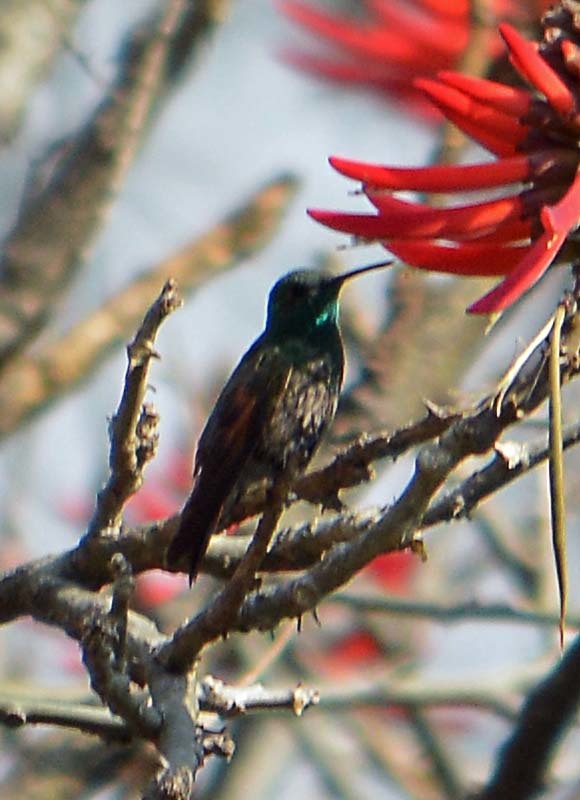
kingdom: Animalia
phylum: Chordata
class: Aves
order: Apodiformes
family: Trochilidae
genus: Saucerottia
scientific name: Saucerottia beryllina
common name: Berylline hummingbird
